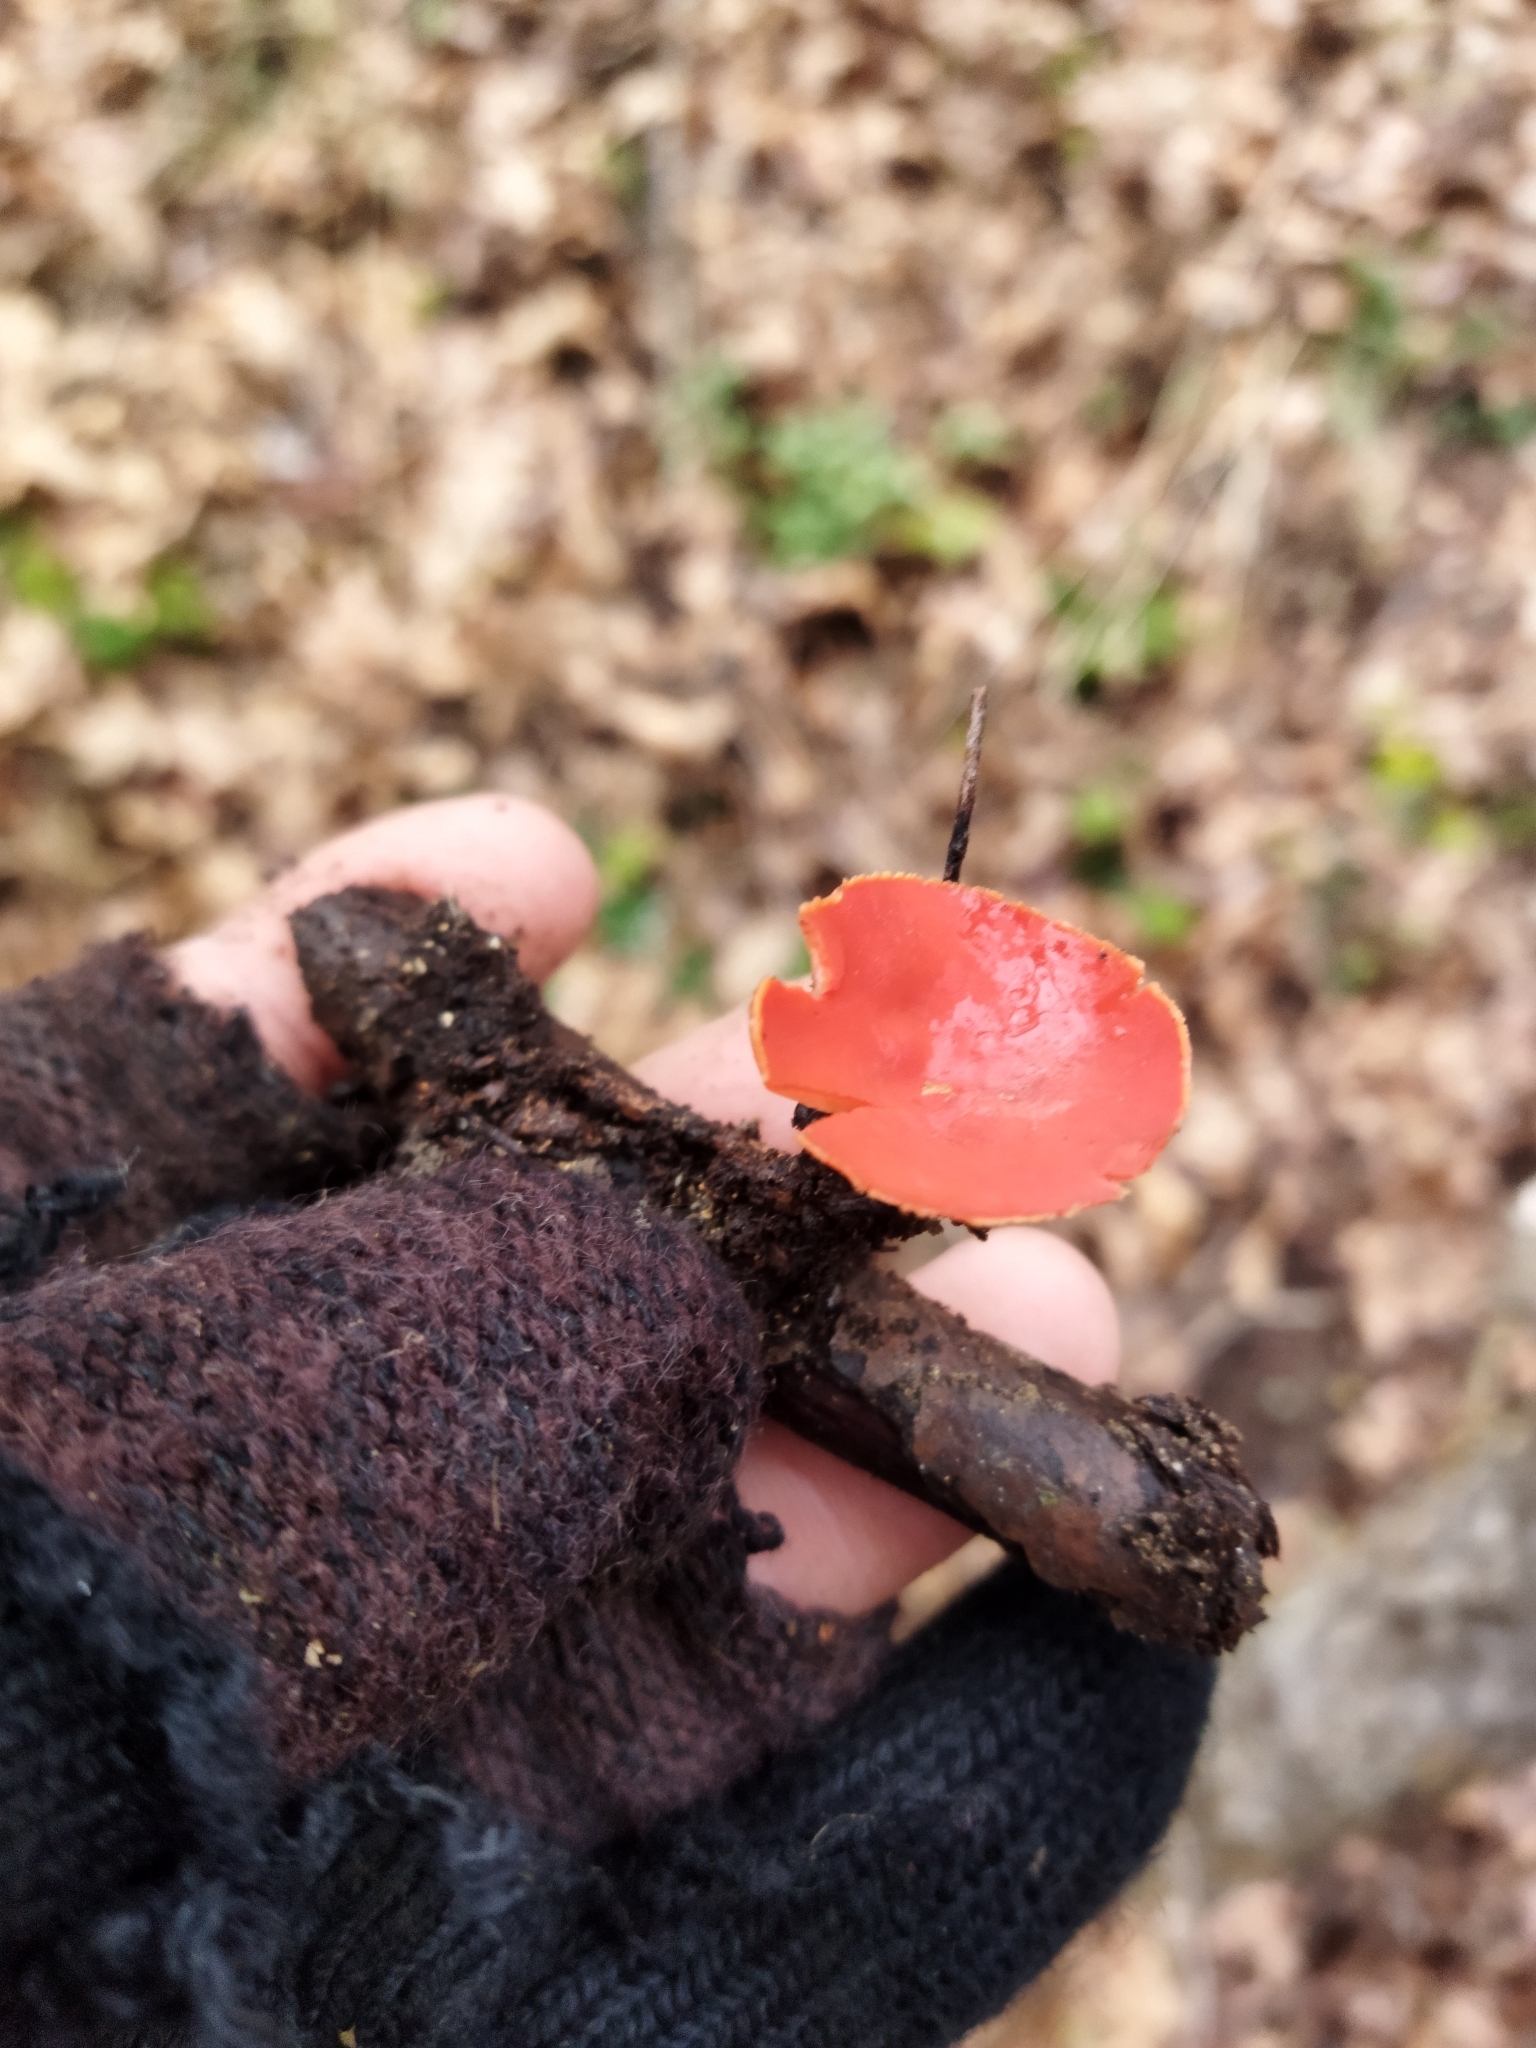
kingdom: Fungi
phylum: Ascomycota
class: Pezizomycetes
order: Pezizales
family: Sarcoscyphaceae
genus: Sarcoscypha
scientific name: Sarcoscypha
